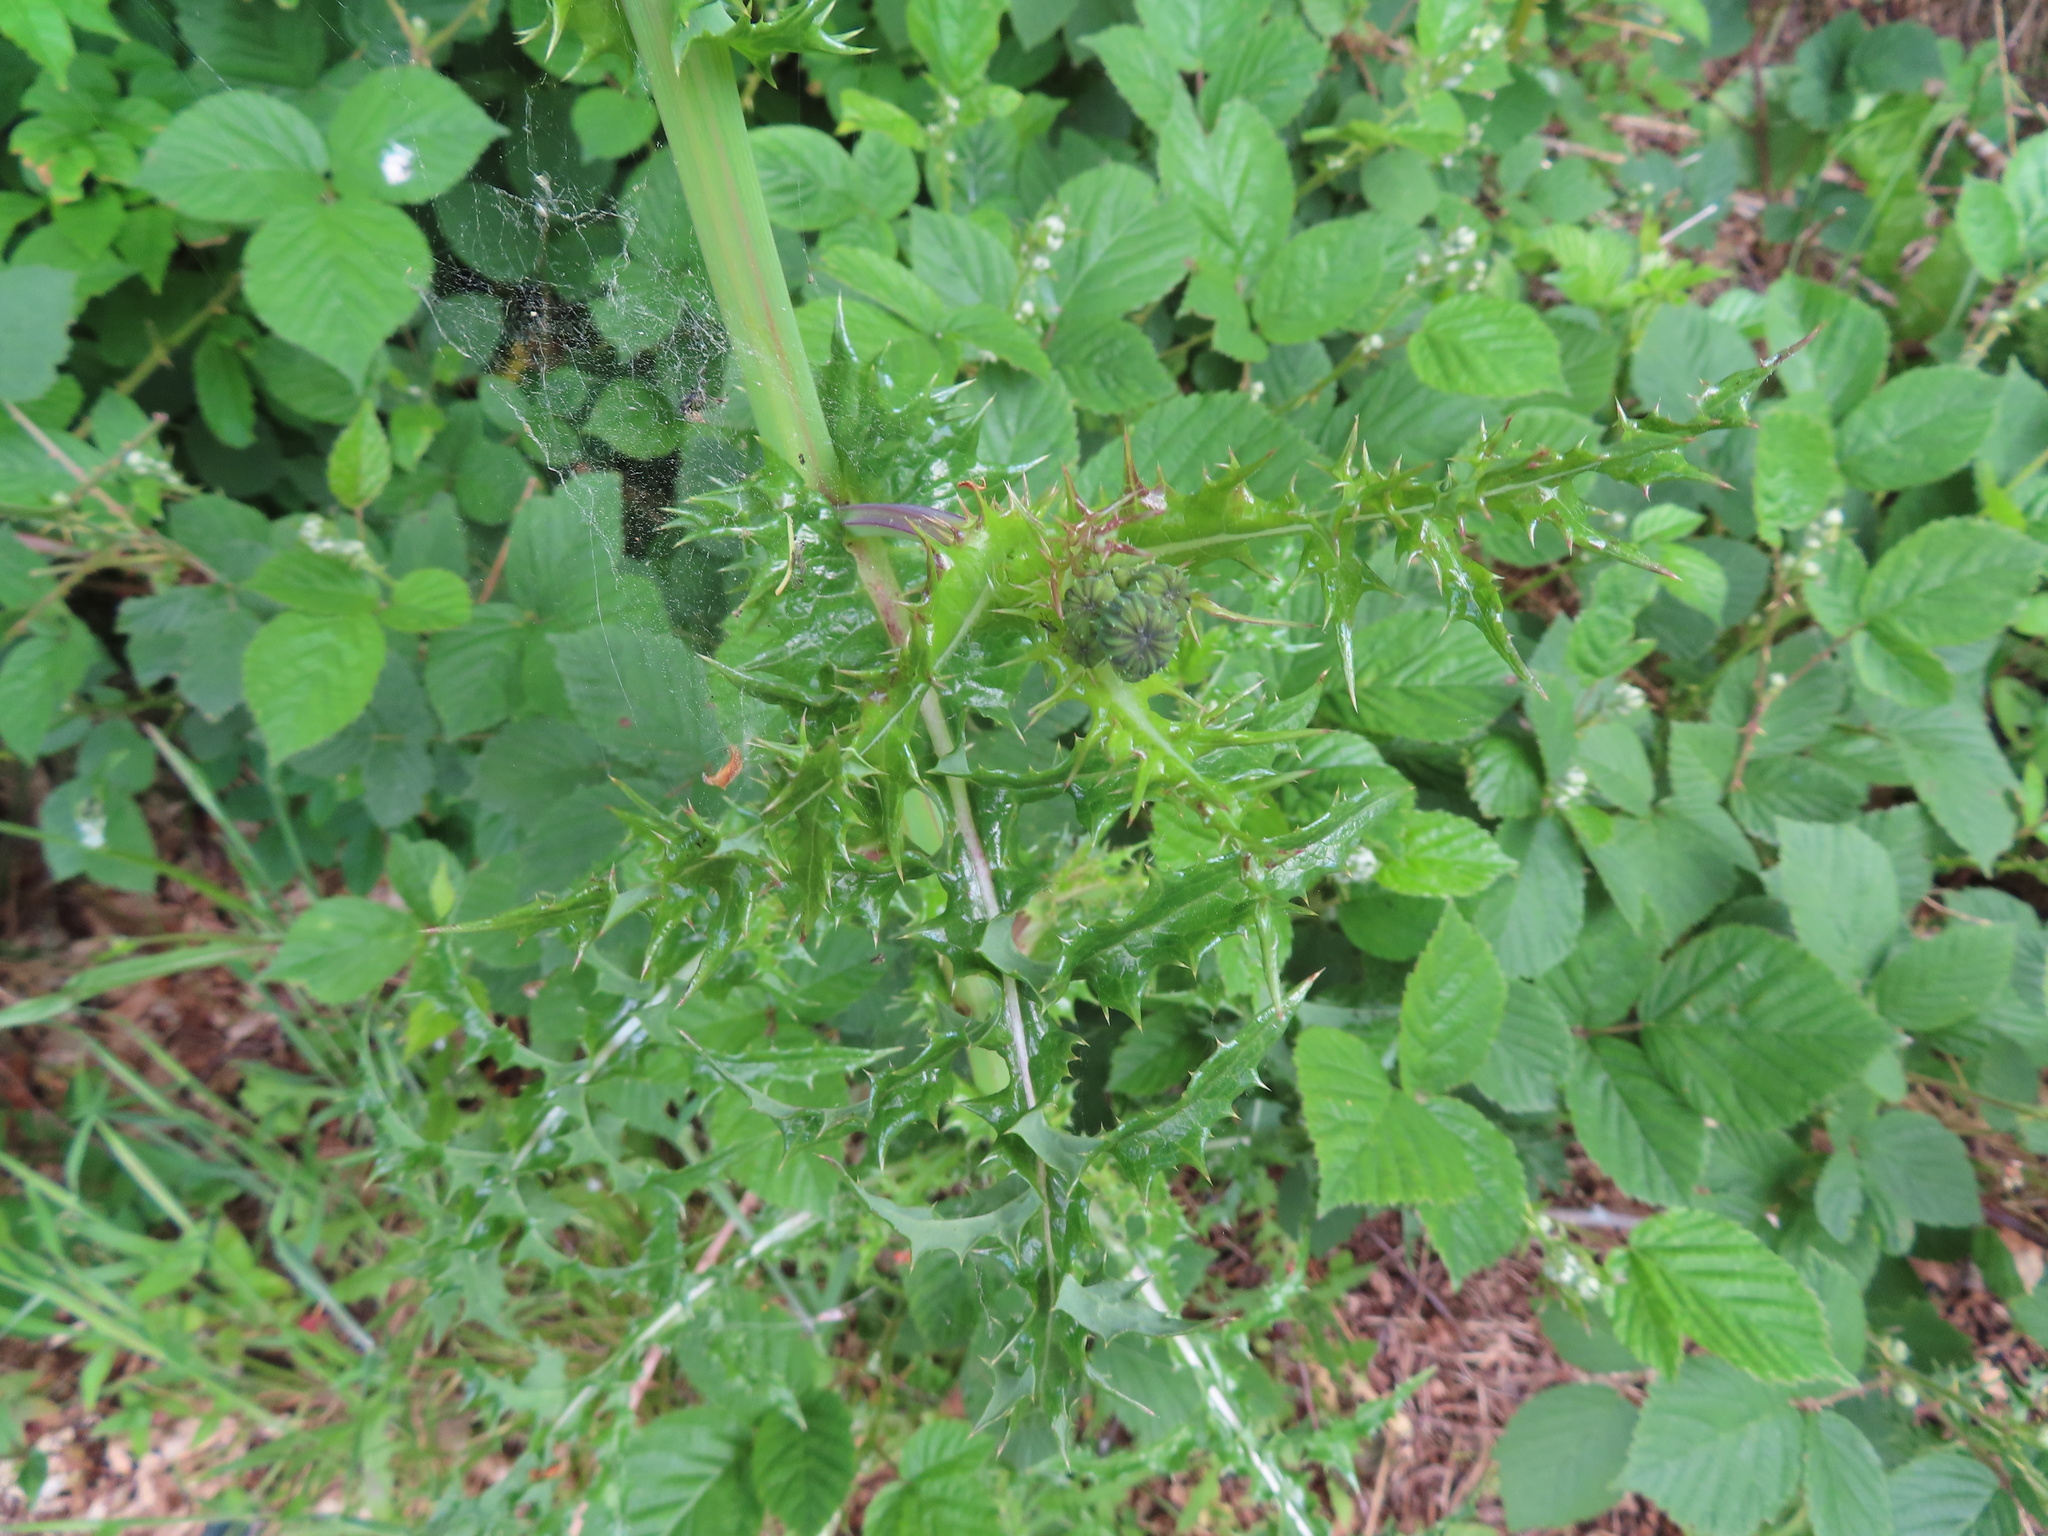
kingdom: Plantae
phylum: Tracheophyta
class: Magnoliopsida
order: Asterales
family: Asteraceae
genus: Sonchus
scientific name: Sonchus asper
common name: Prickly sow-thistle
